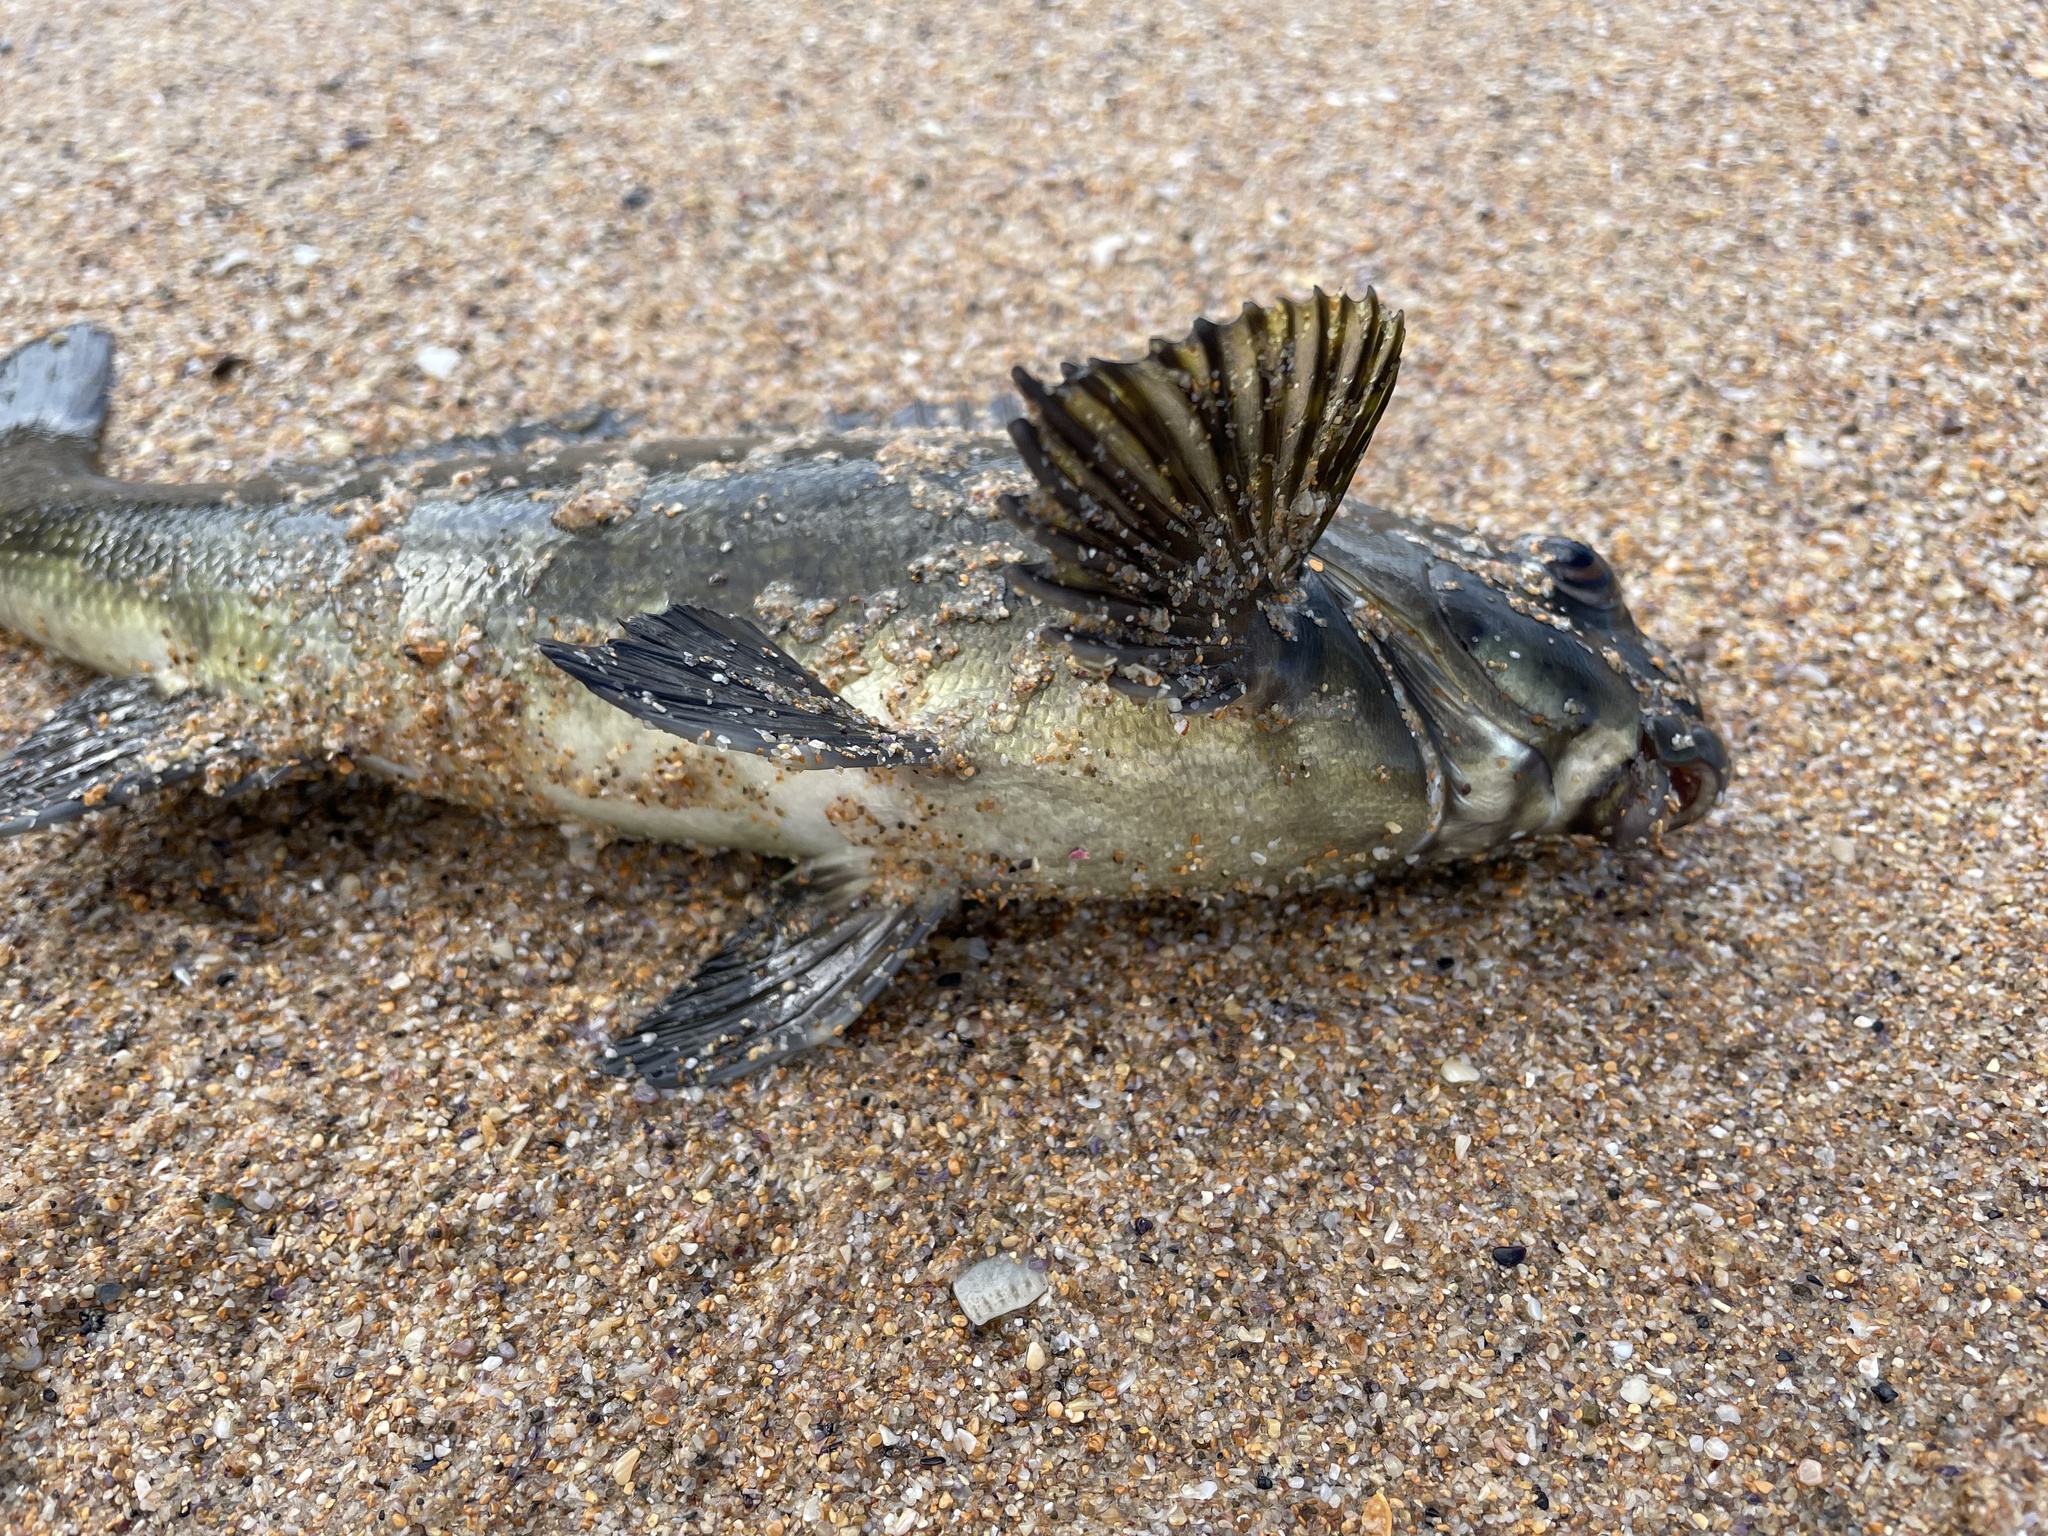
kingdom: Animalia
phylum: Chordata
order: Perciformes
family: Aplodactylidae
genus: Aplodactylus
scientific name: Aplodactylus lophodon
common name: Cockatoo fish
